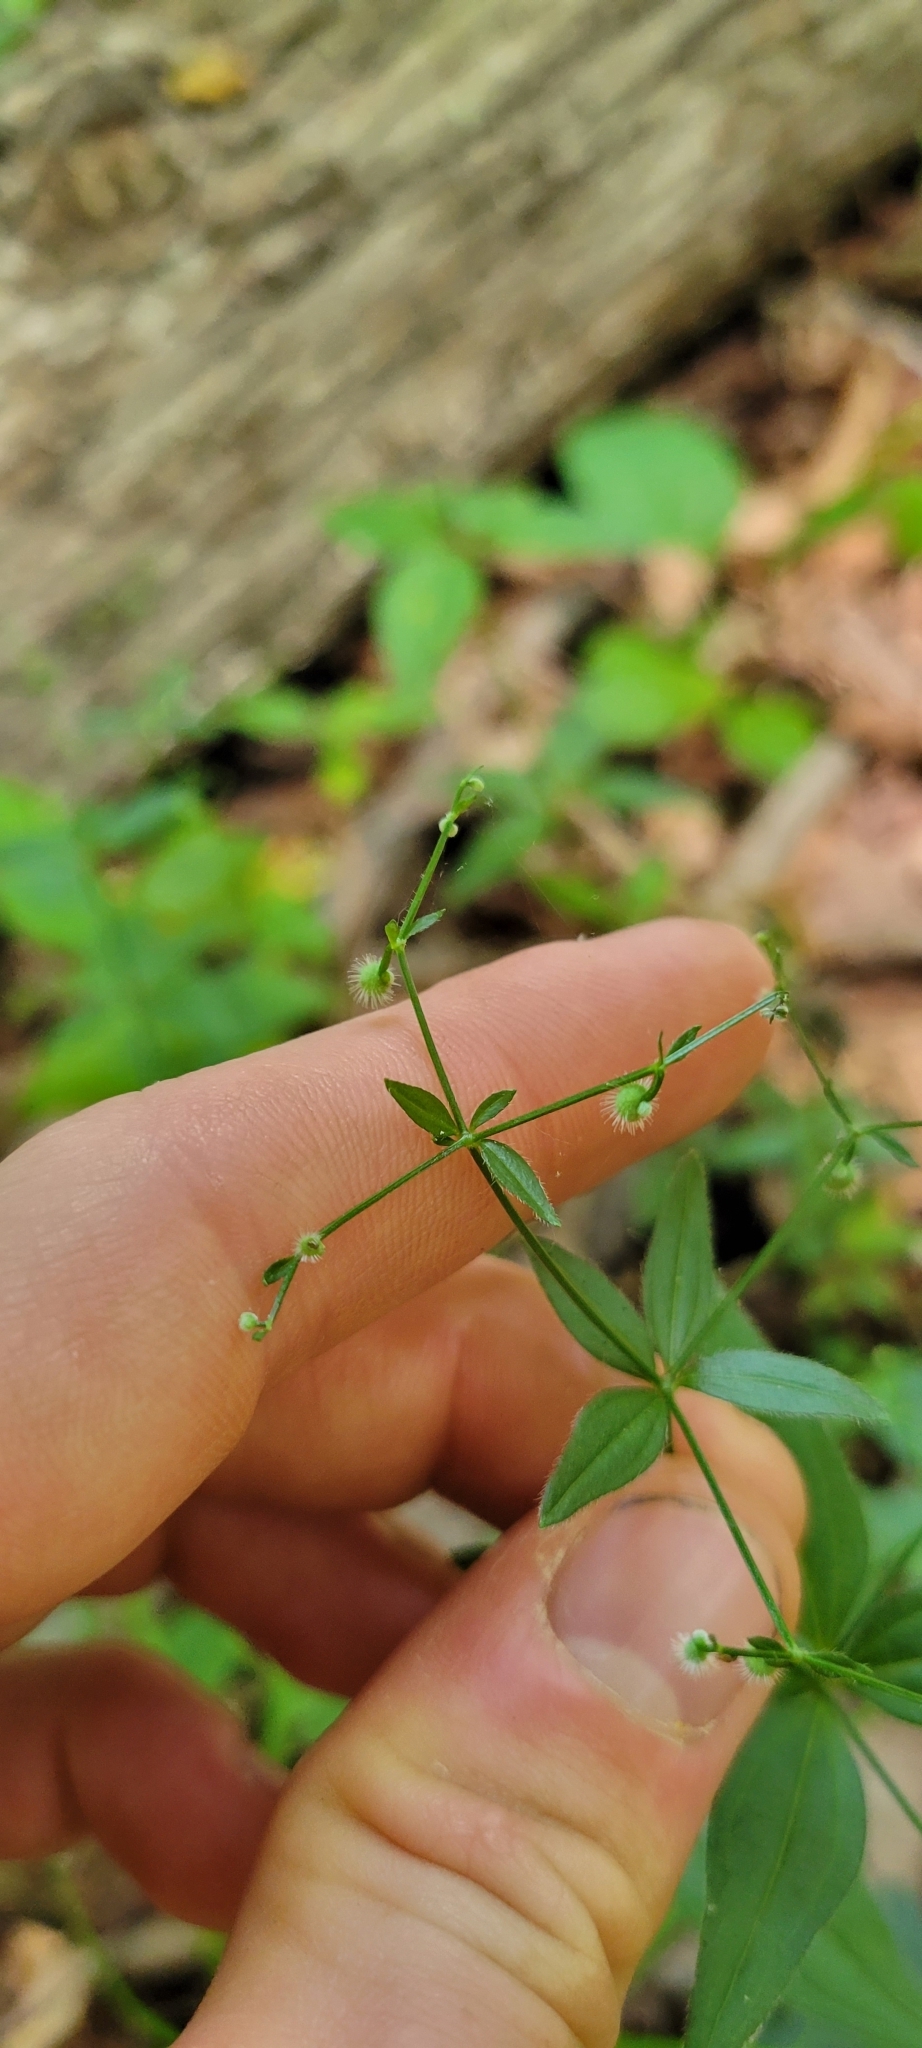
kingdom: Plantae
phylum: Tracheophyta
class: Magnoliopsida
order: Gentianales
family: Rubiaceae
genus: Galium
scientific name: Galium circaezans
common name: Forest bedstraw
